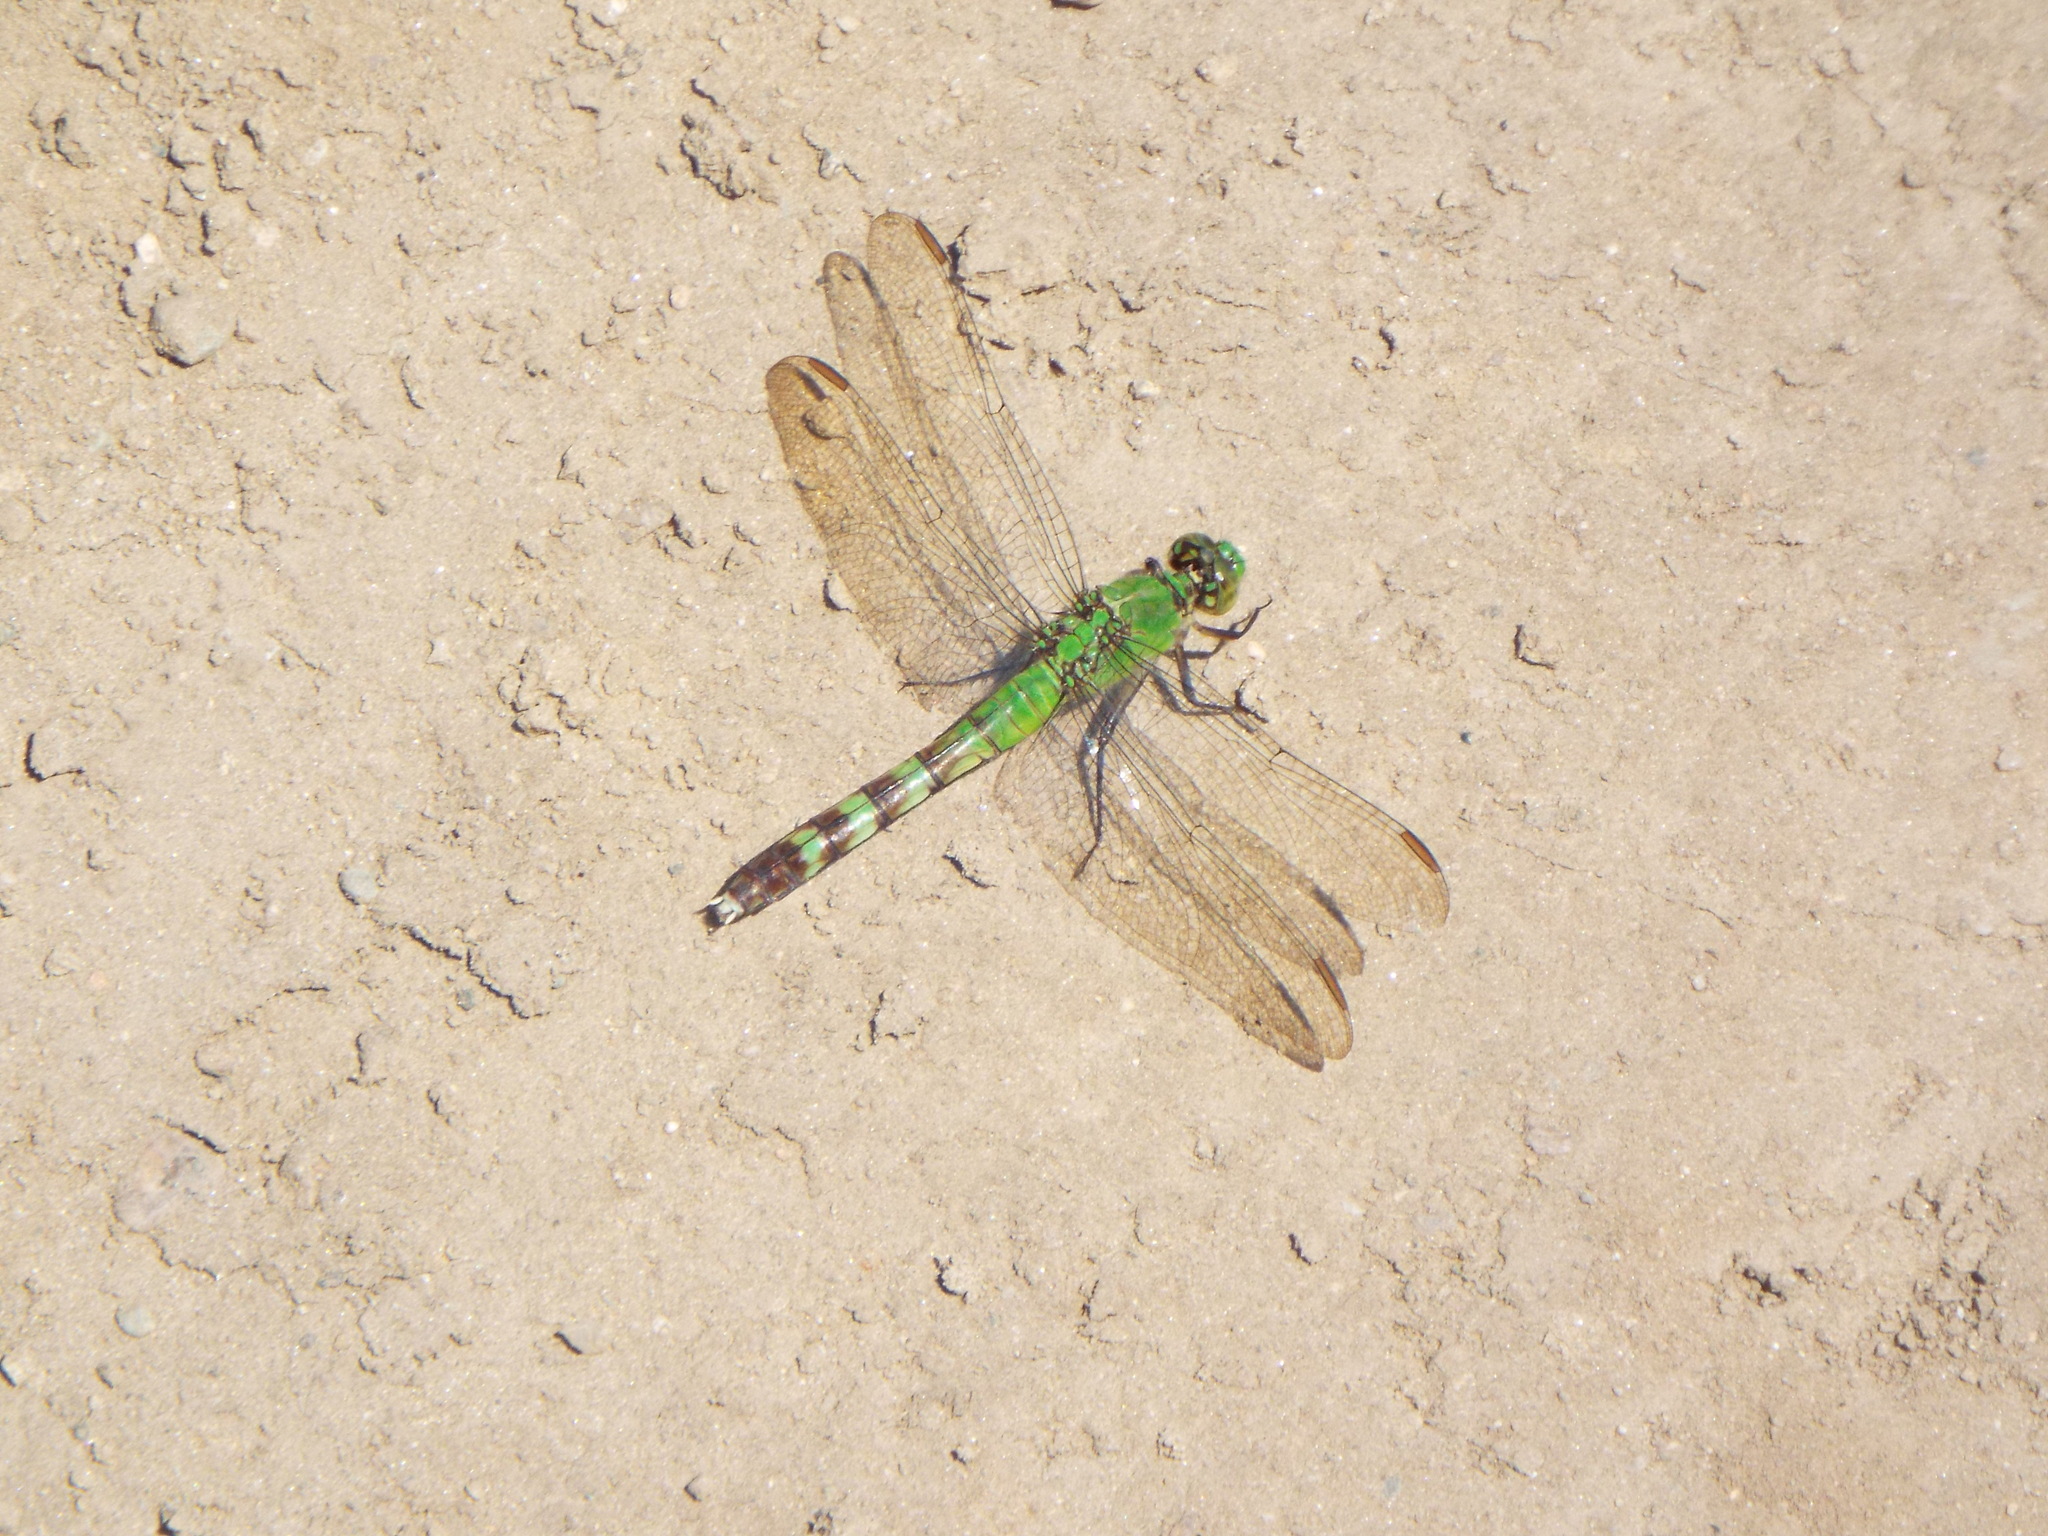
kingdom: Animalia
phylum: Arthropoda
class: Insecta
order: Odonata
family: Libellulidae
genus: Erythemis
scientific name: Erythemis simplicicollis
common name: Eastern pondhawk
